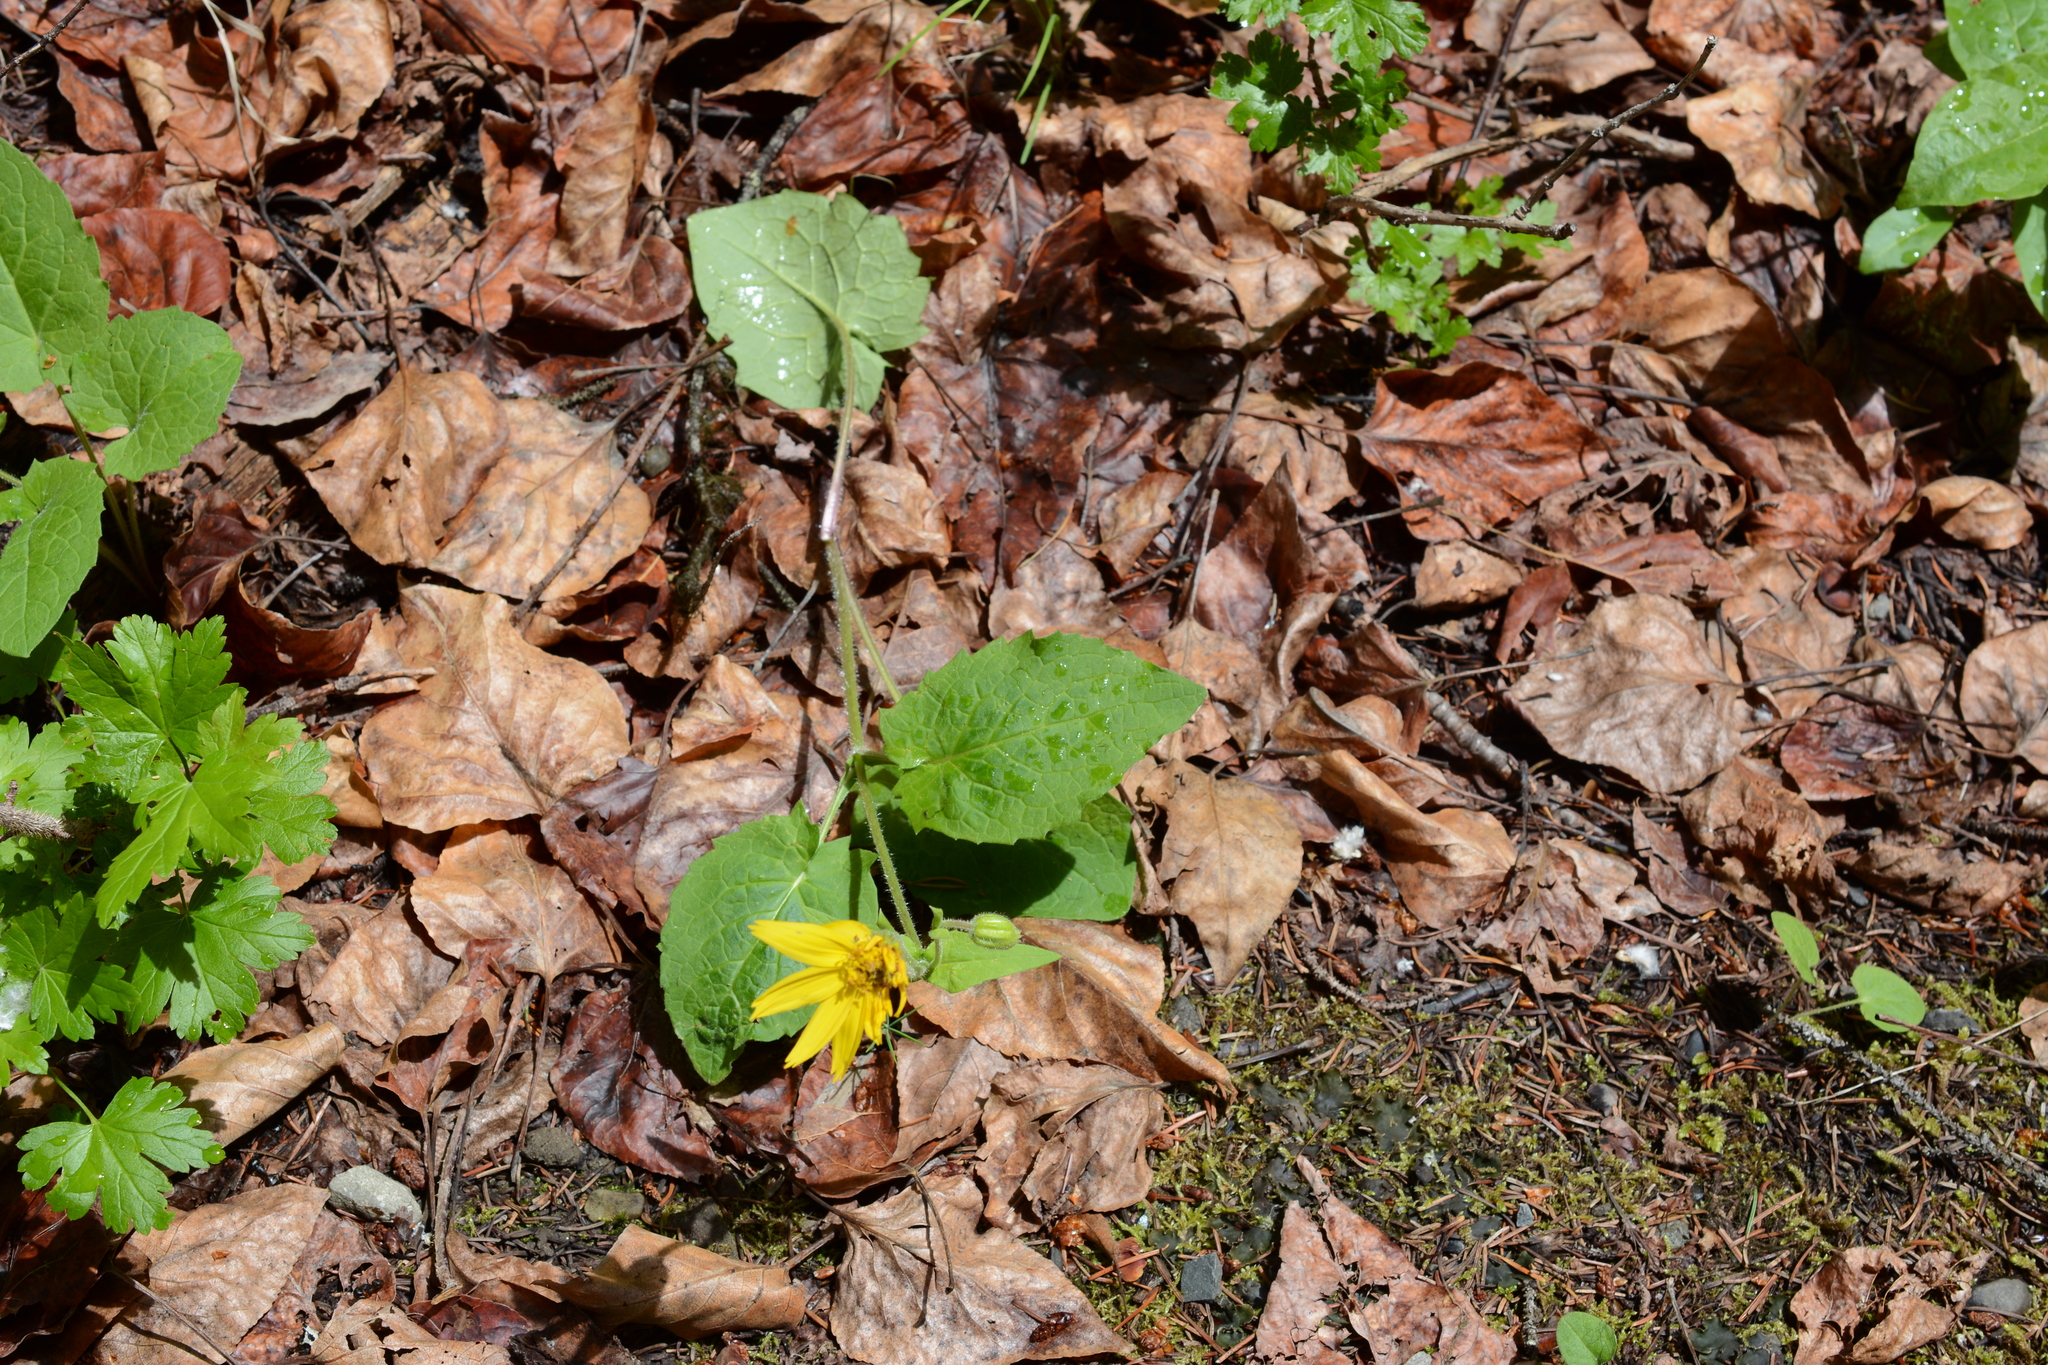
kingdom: Plantae
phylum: Tracheophyta
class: Magnoliopsida
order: Asterales
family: Asteraceae
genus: Arnica
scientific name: Arnica cordifolia
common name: Heart-leaf arnica
